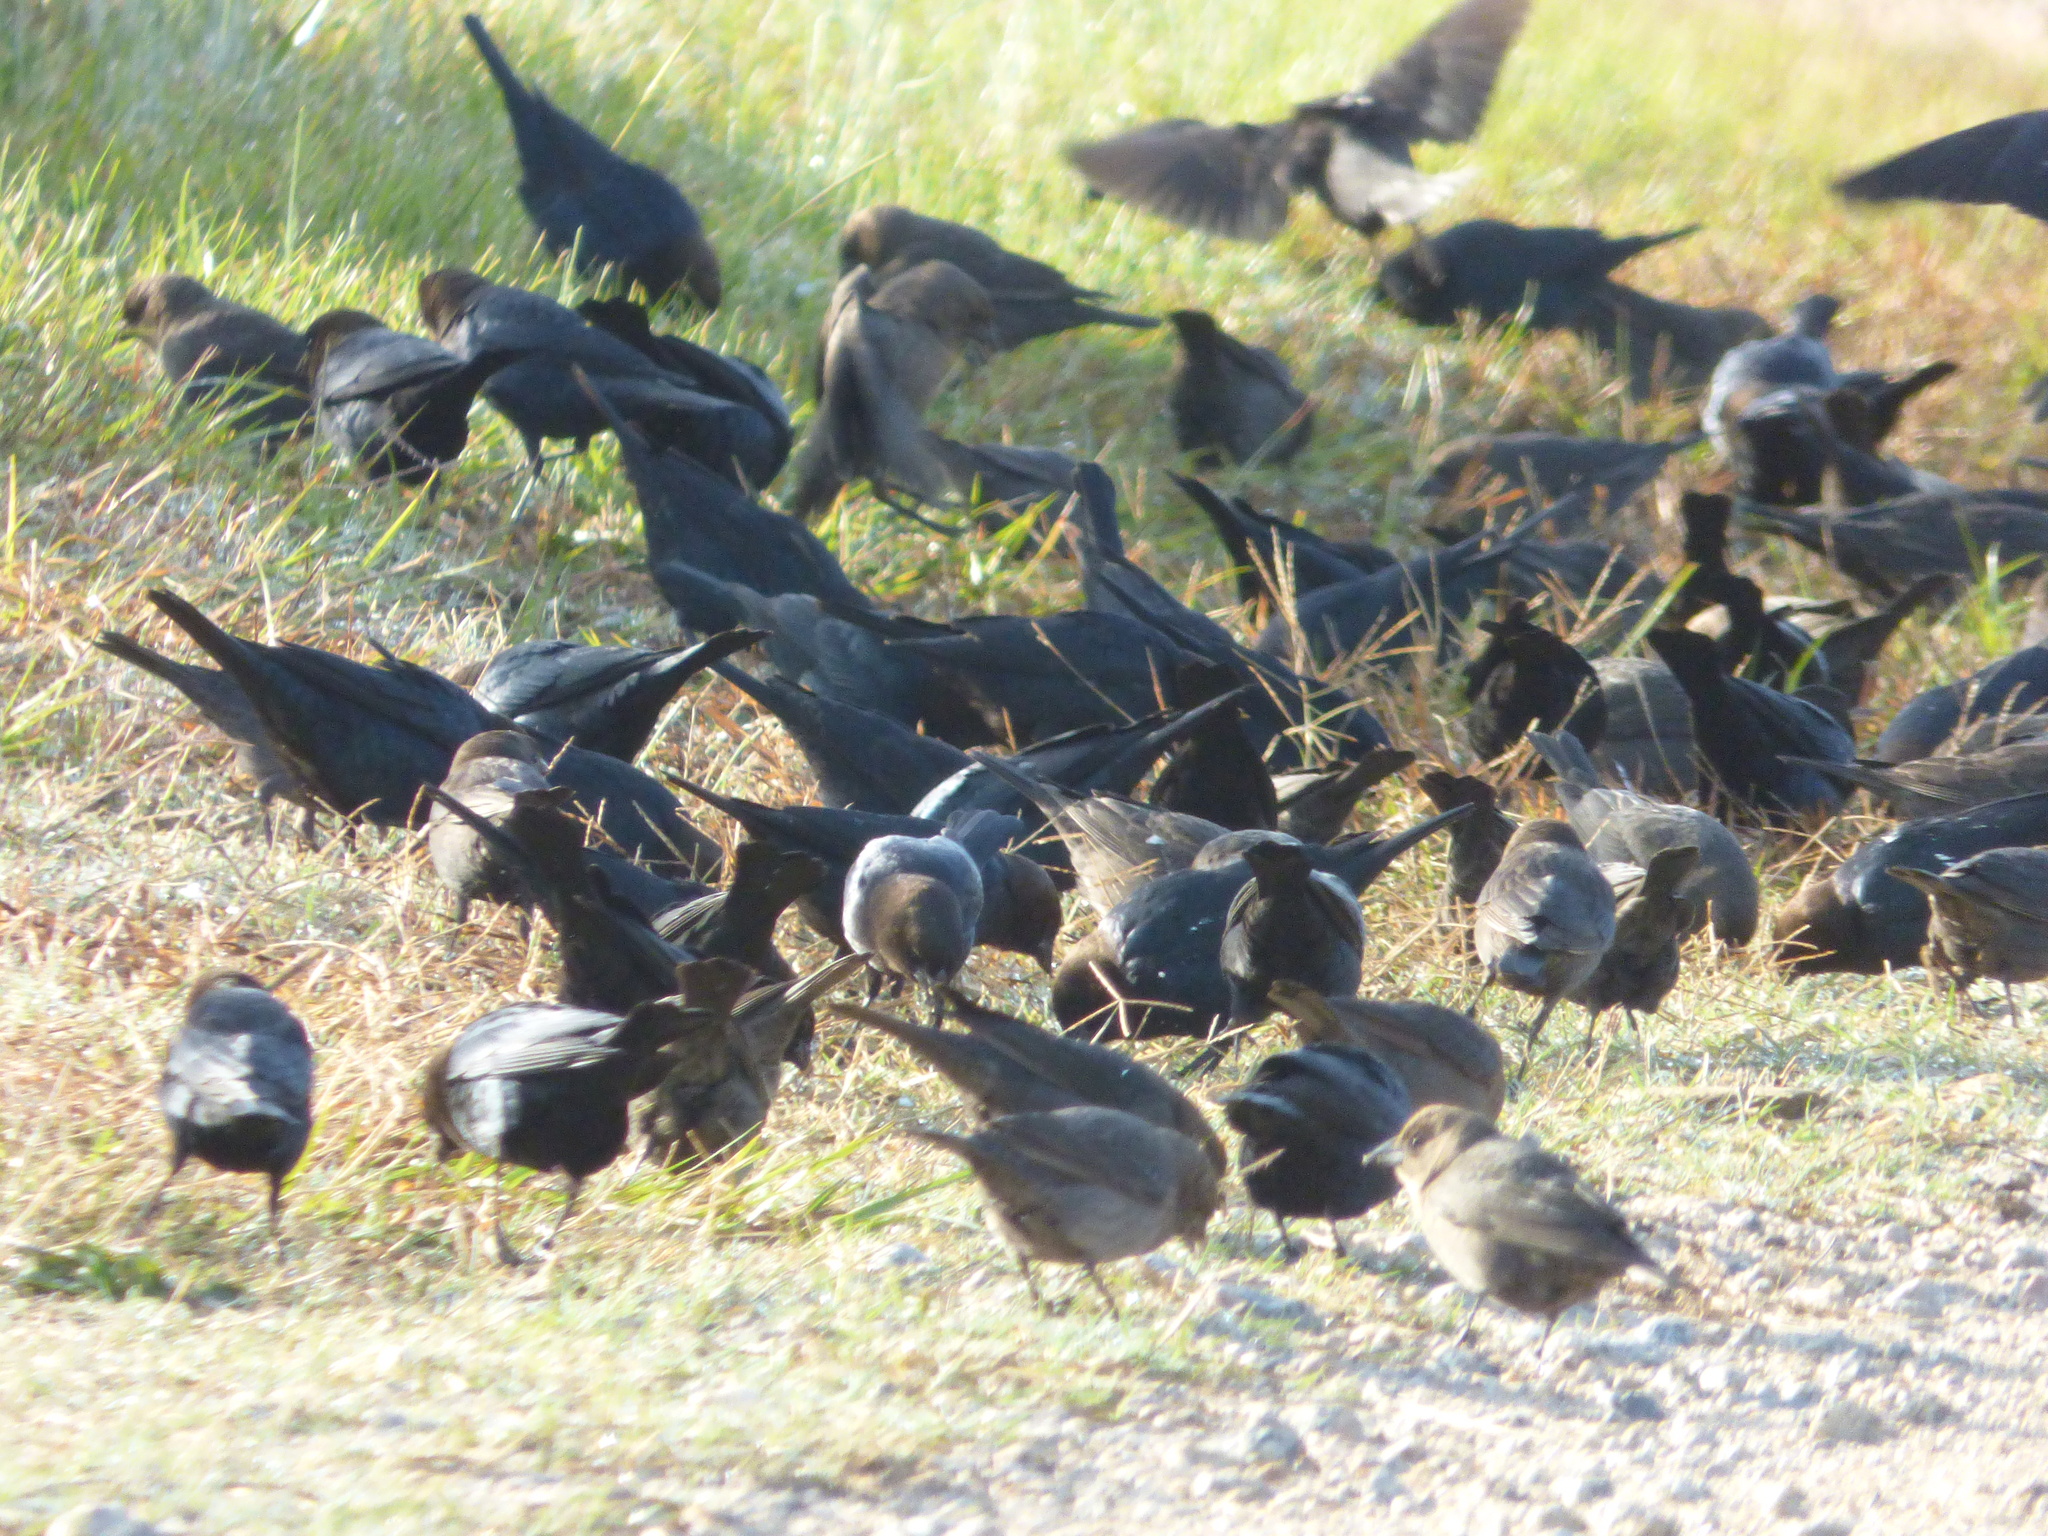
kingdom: Animalia
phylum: Chordata
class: Aves
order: Passeriformes
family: Icteridae
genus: Molothrus
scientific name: Molothrus ater
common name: Brown-headed cowbird
